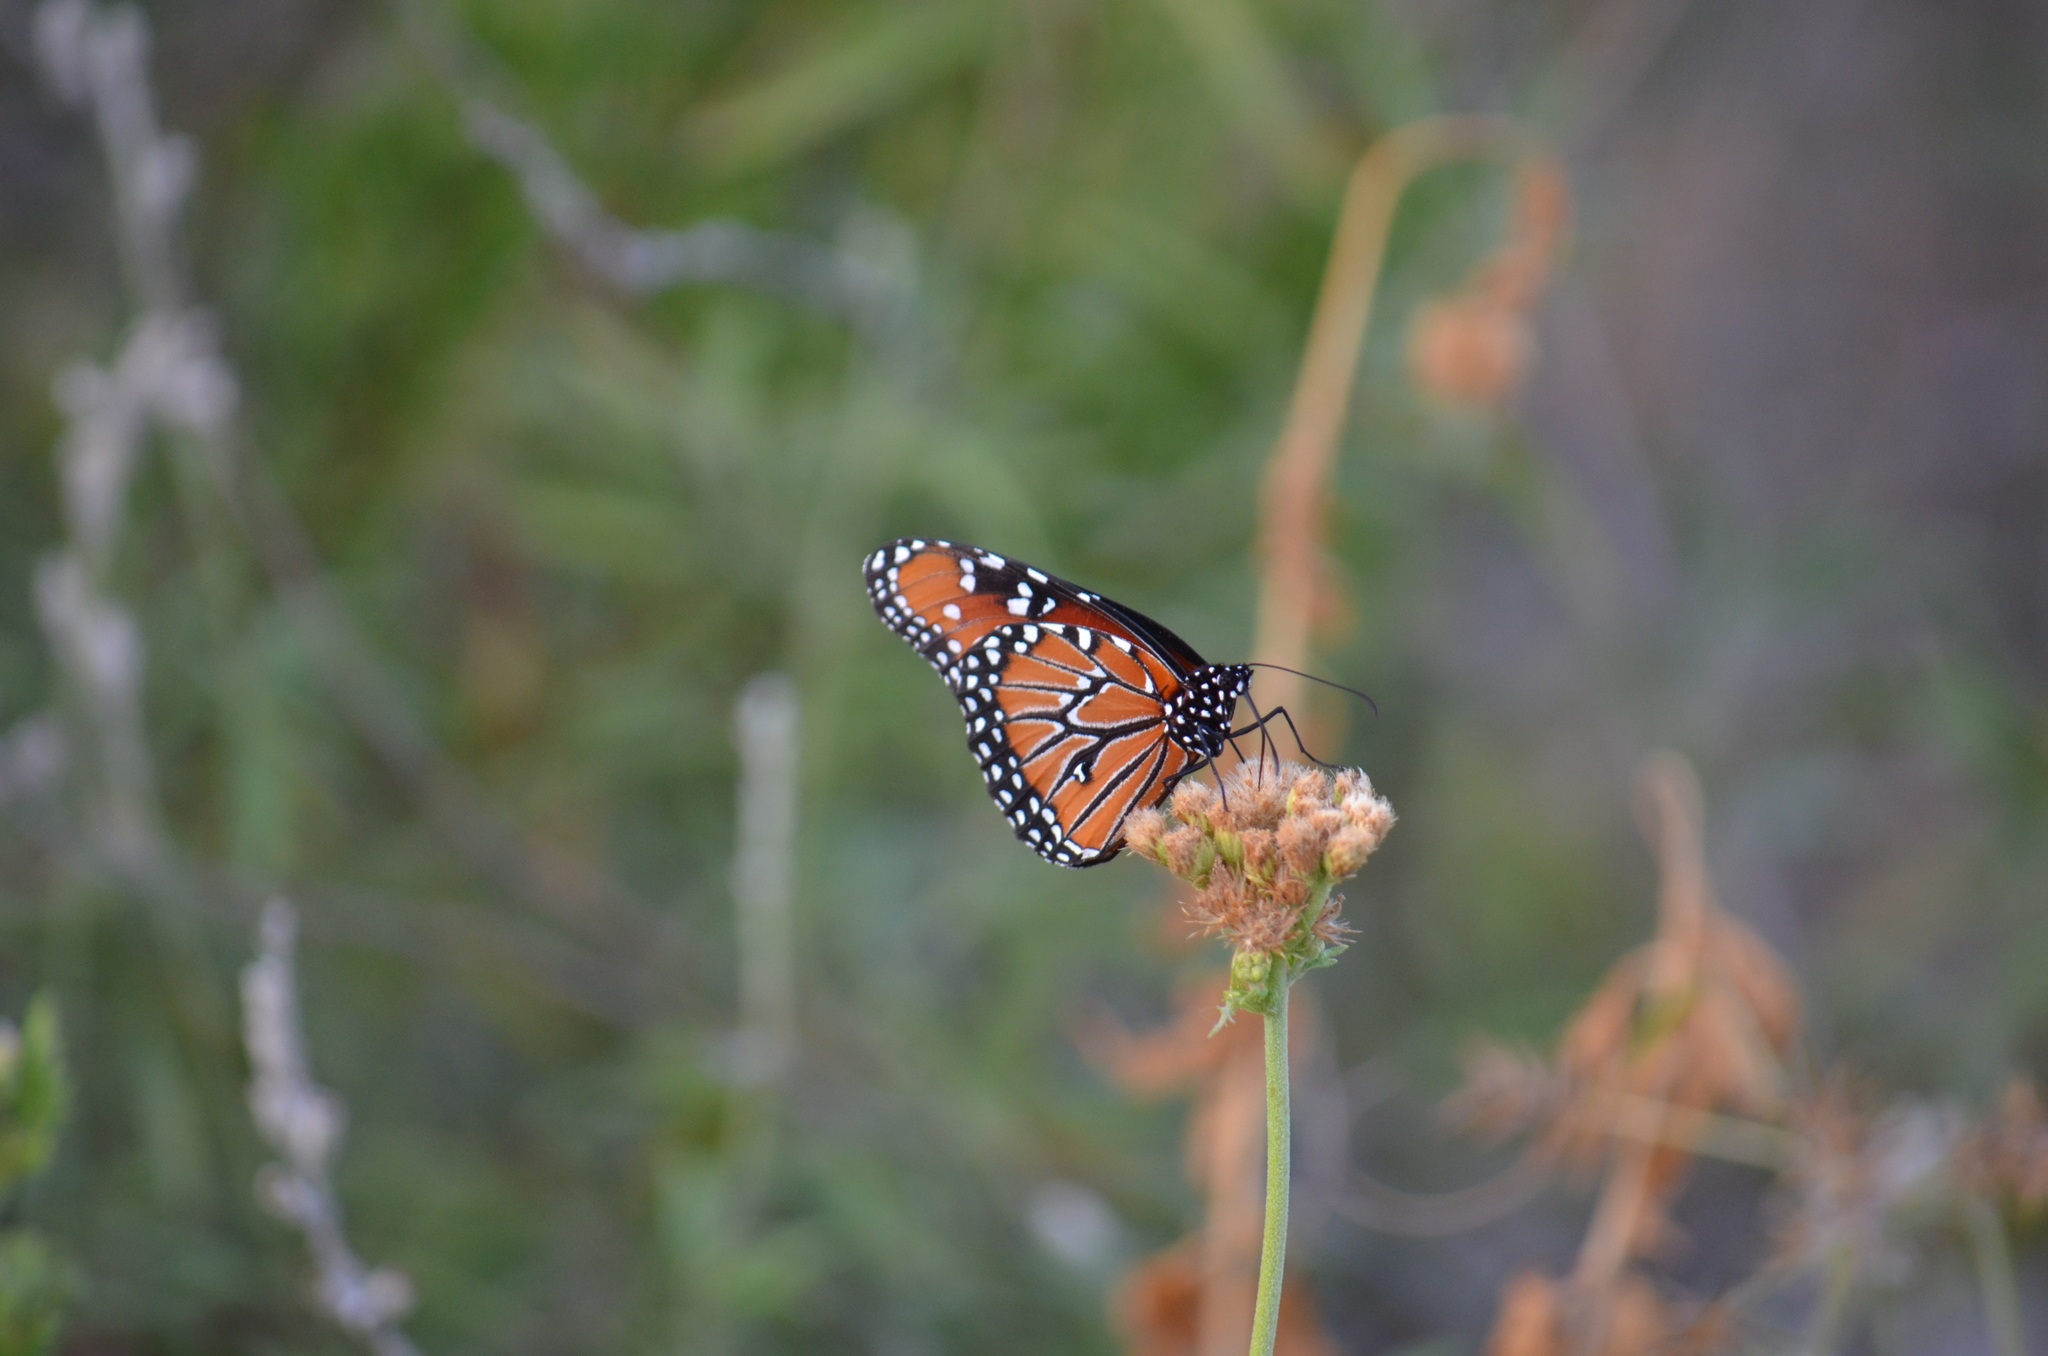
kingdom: Animalia
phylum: Arthropoda
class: Insecta
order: Lepidoptera
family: Nymphalidae
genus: Danaus
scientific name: Danaus gilippus
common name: Queen
